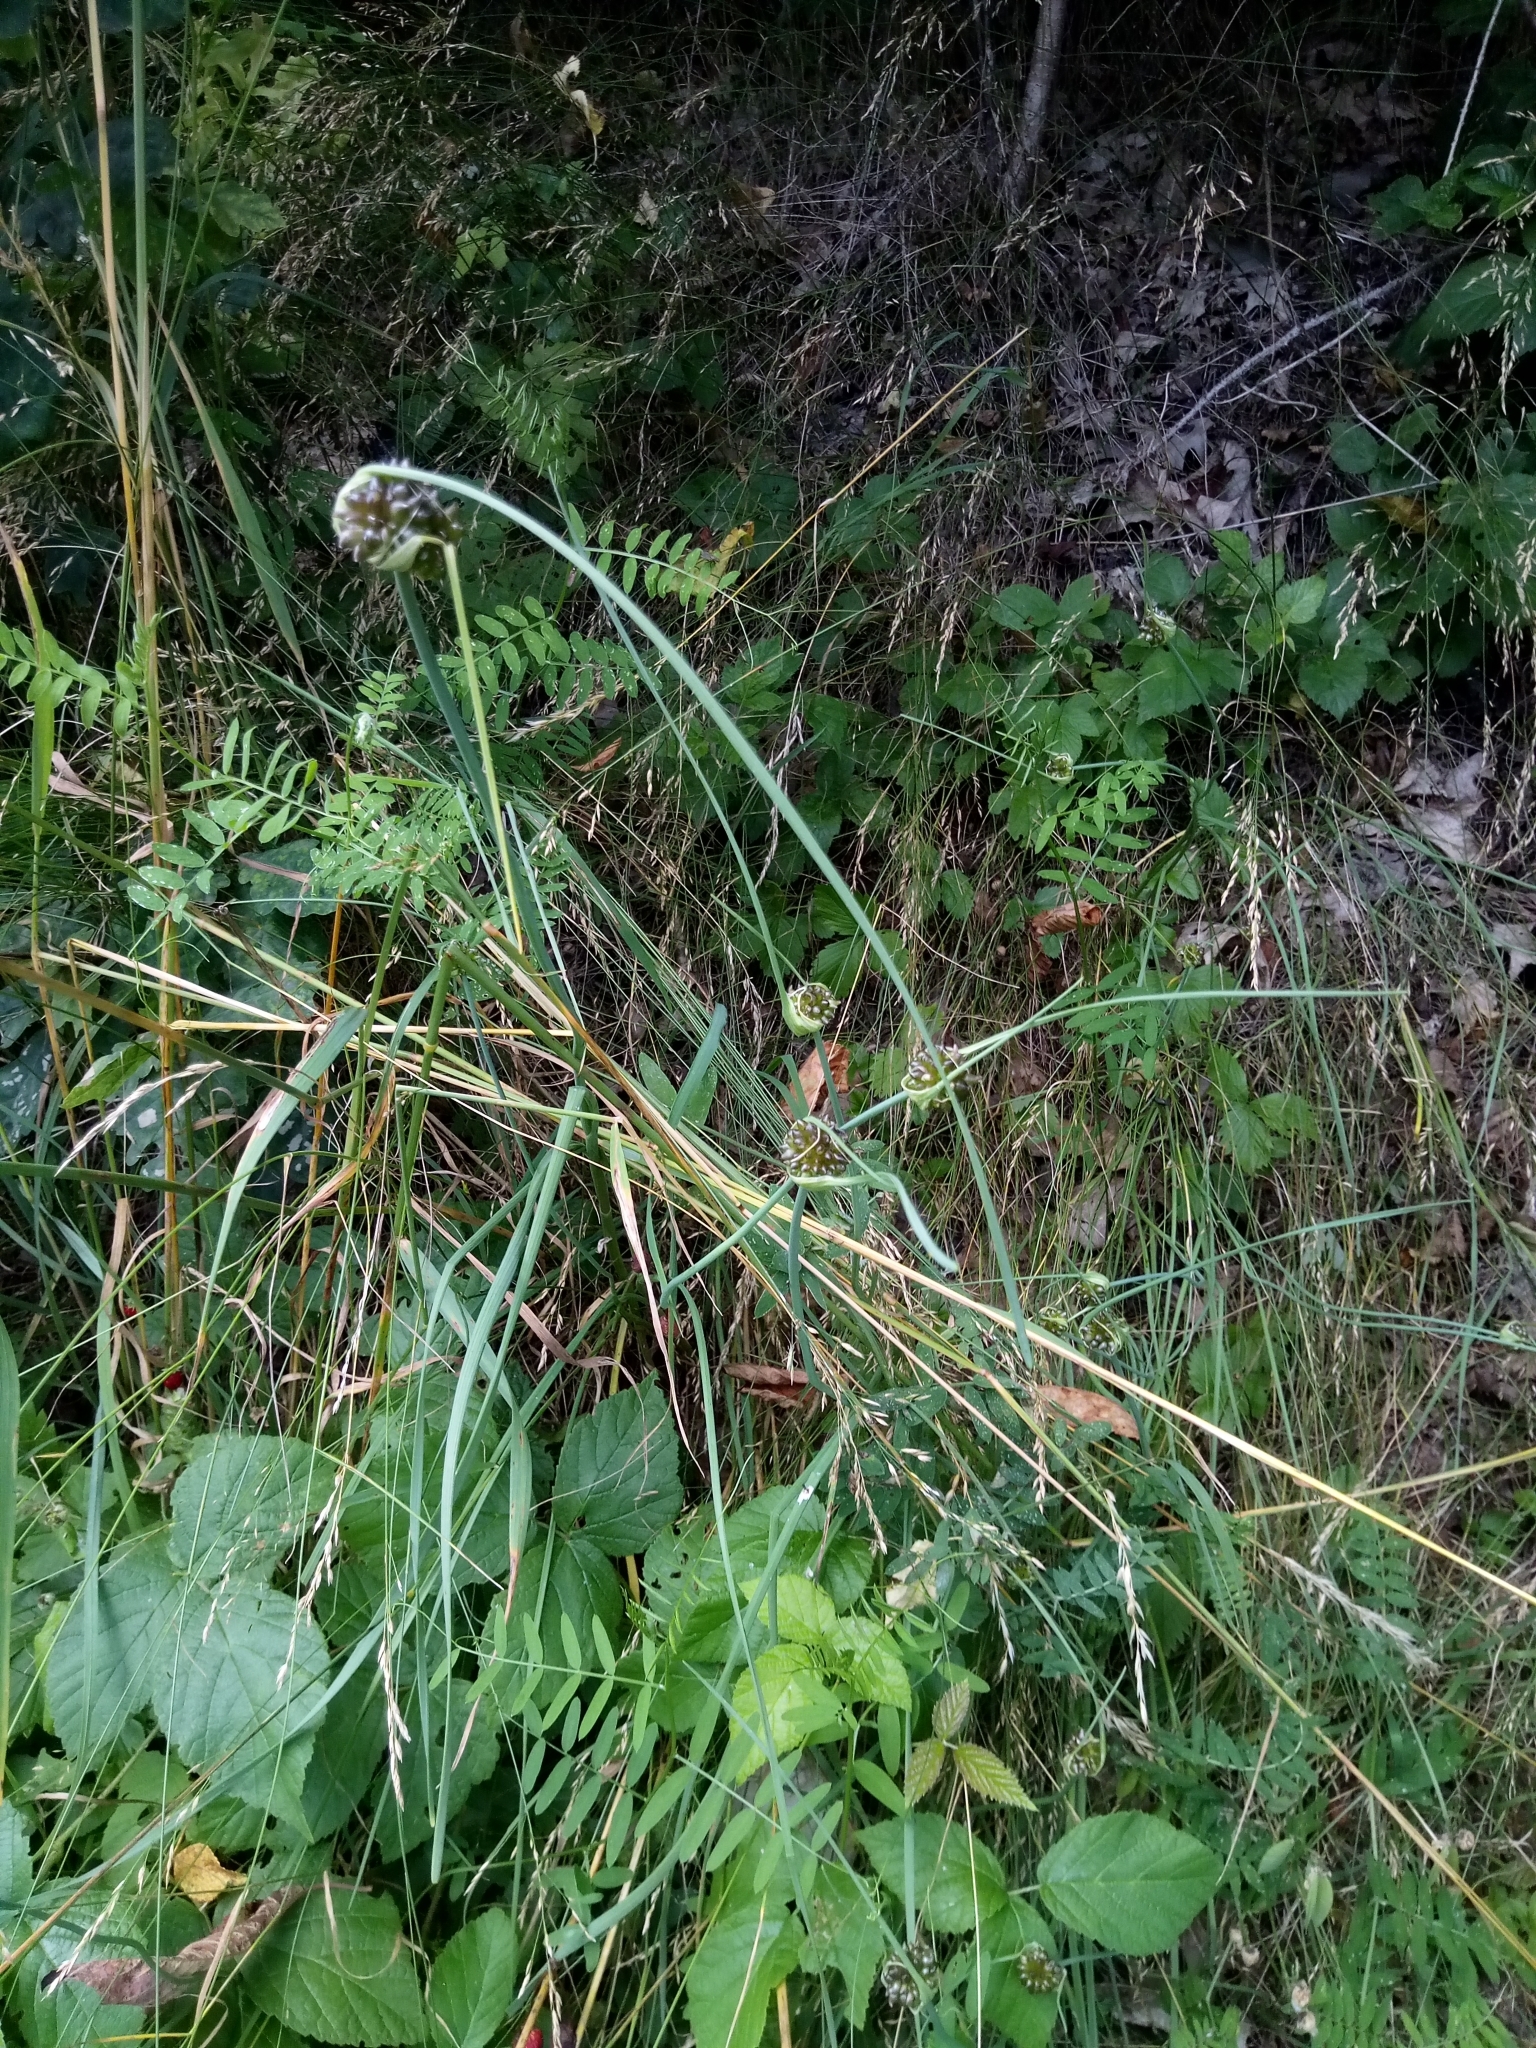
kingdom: Plantae
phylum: Tracheophyta
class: Liliopsida
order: Asparagales
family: Amaryllidaceae
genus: Allium
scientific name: Allium oleraceum
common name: Field garlic
